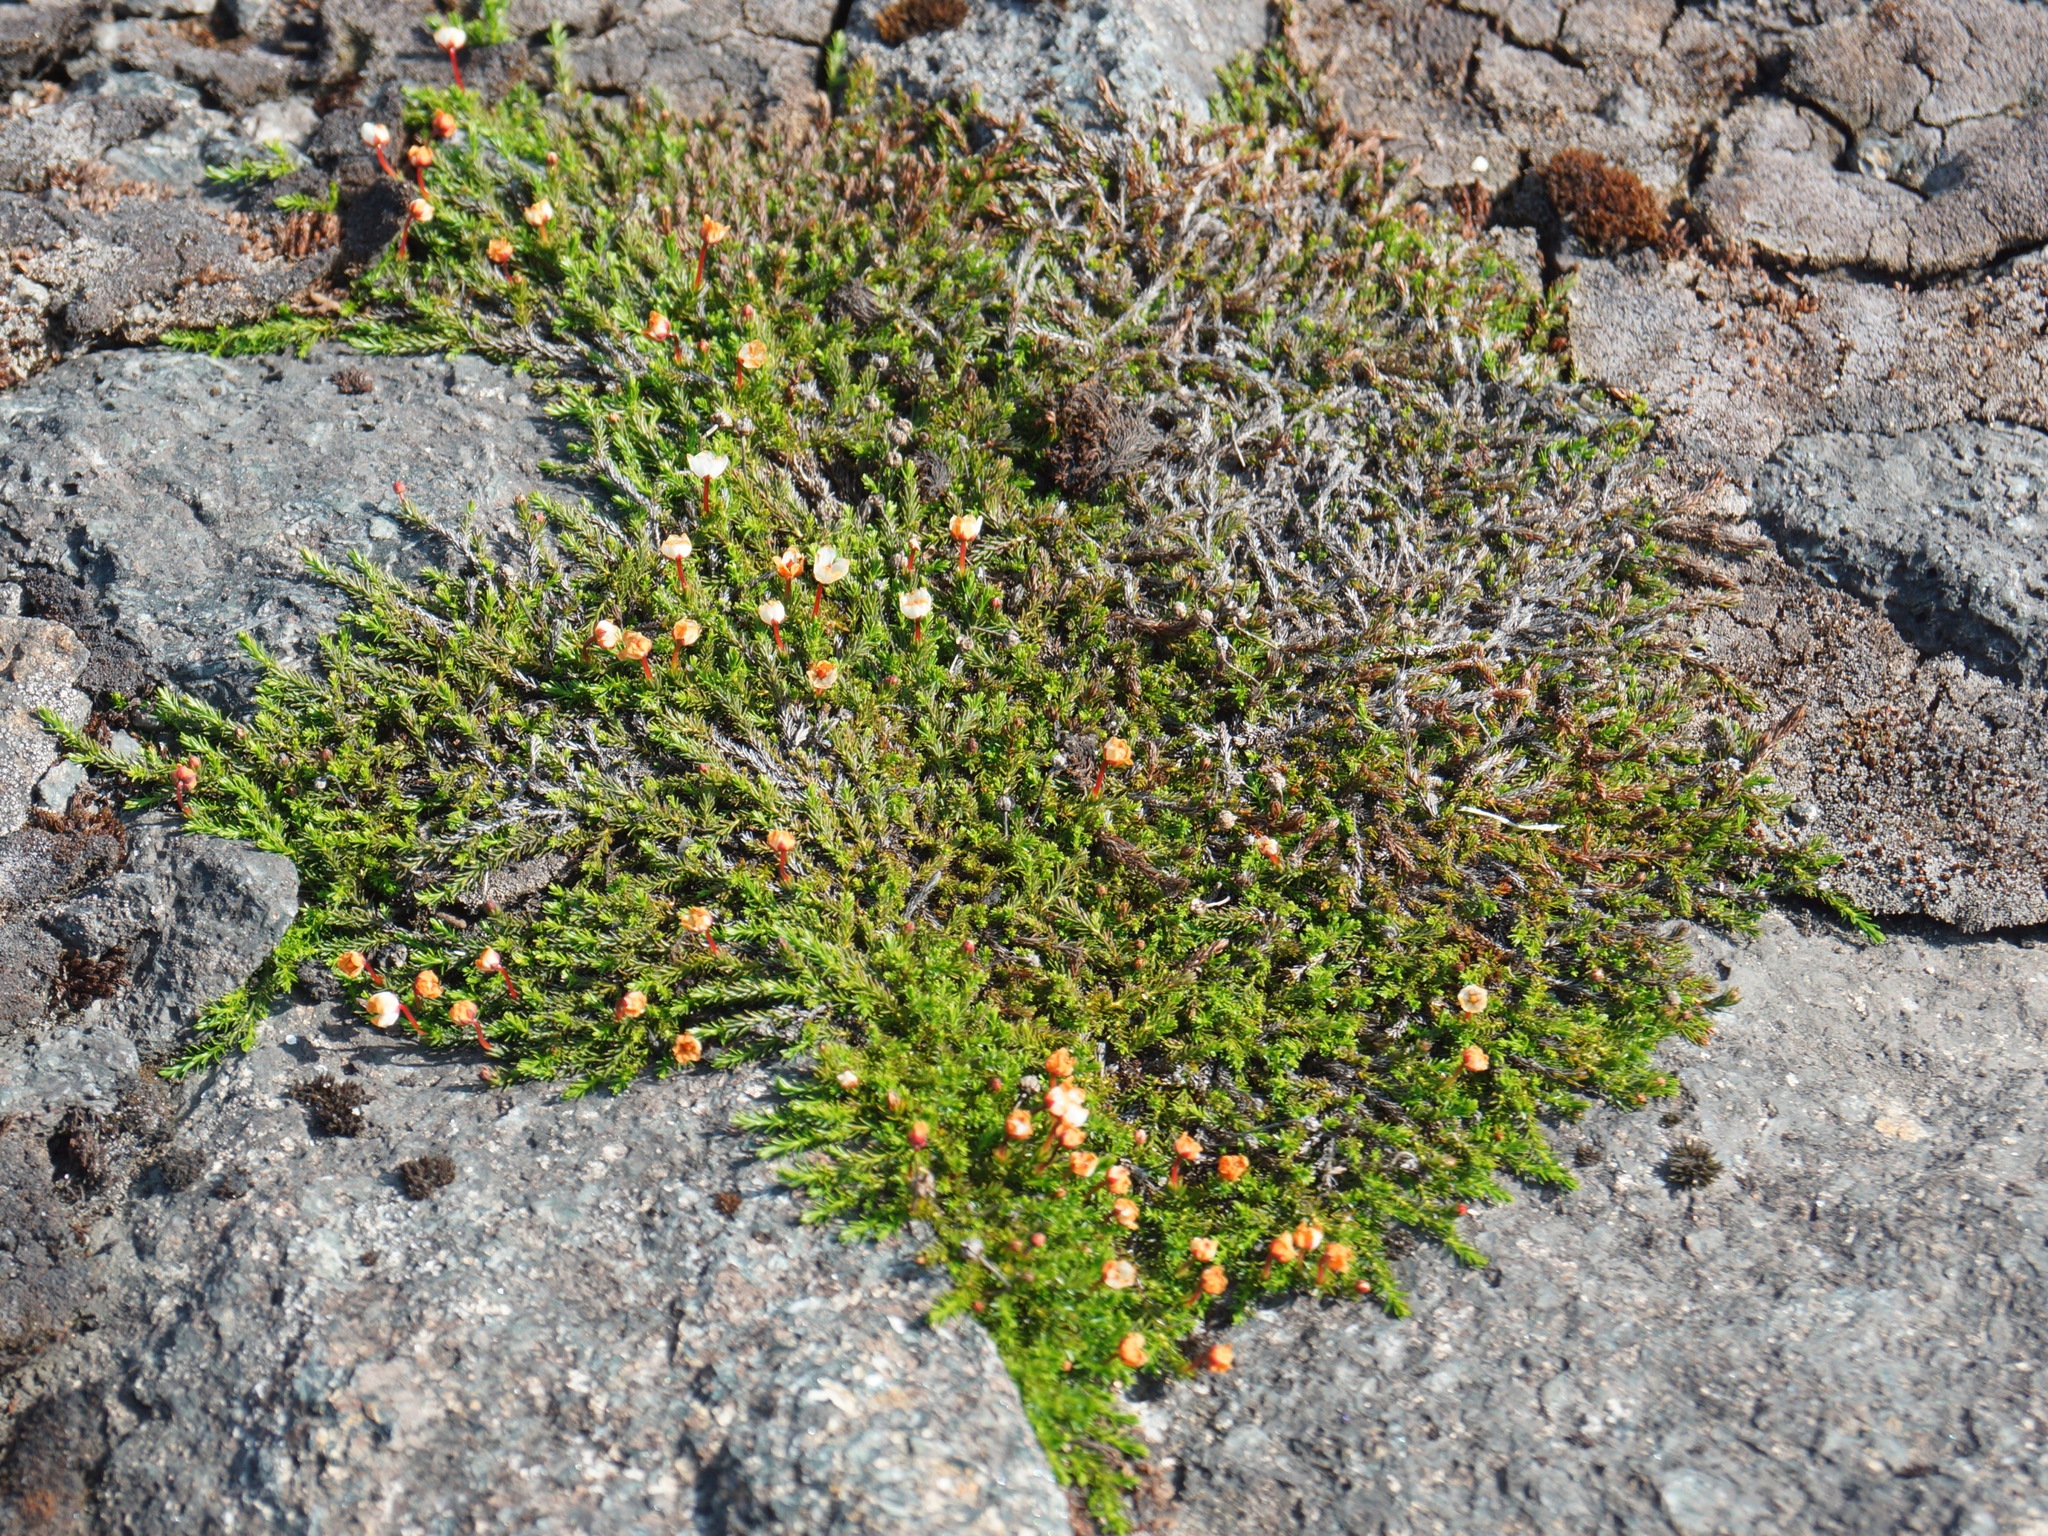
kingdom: Plantae
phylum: Tracheophyta
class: Magnoliopsida
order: Ericales
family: Ericaceae
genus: Harrimanella
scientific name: Harrimanella hypnoides
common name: Moss bell heather
